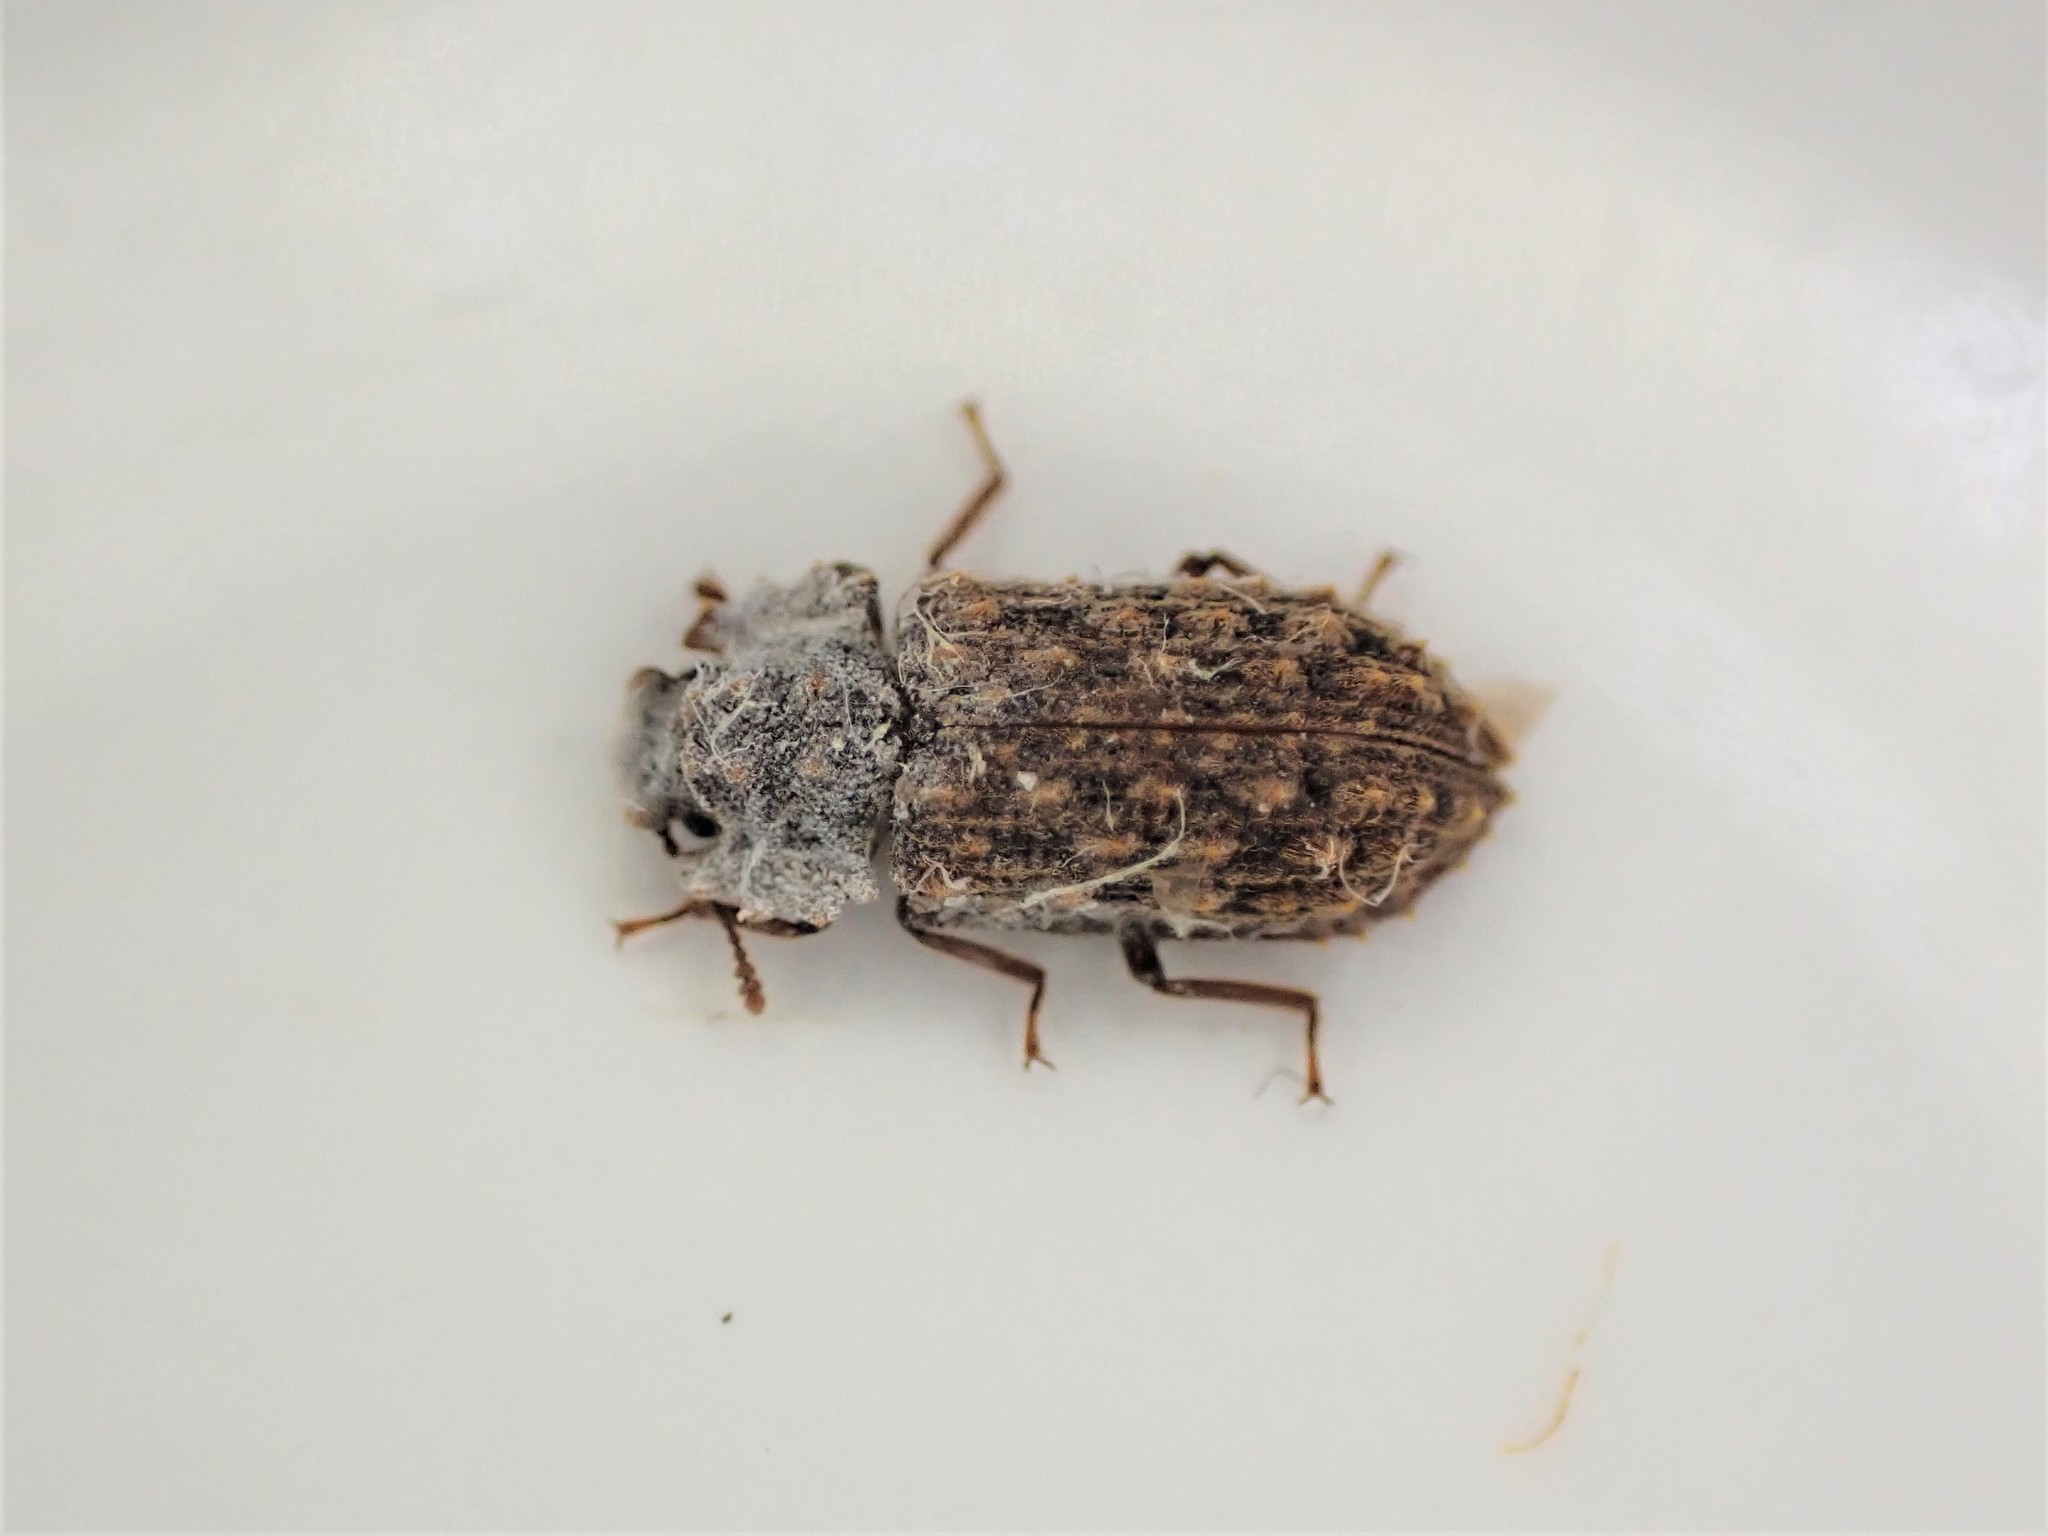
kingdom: Animalia
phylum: Arthropoda
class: Insecta
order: Coleoptera
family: Zopheridae
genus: Pristoderus
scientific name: Pristoderus
